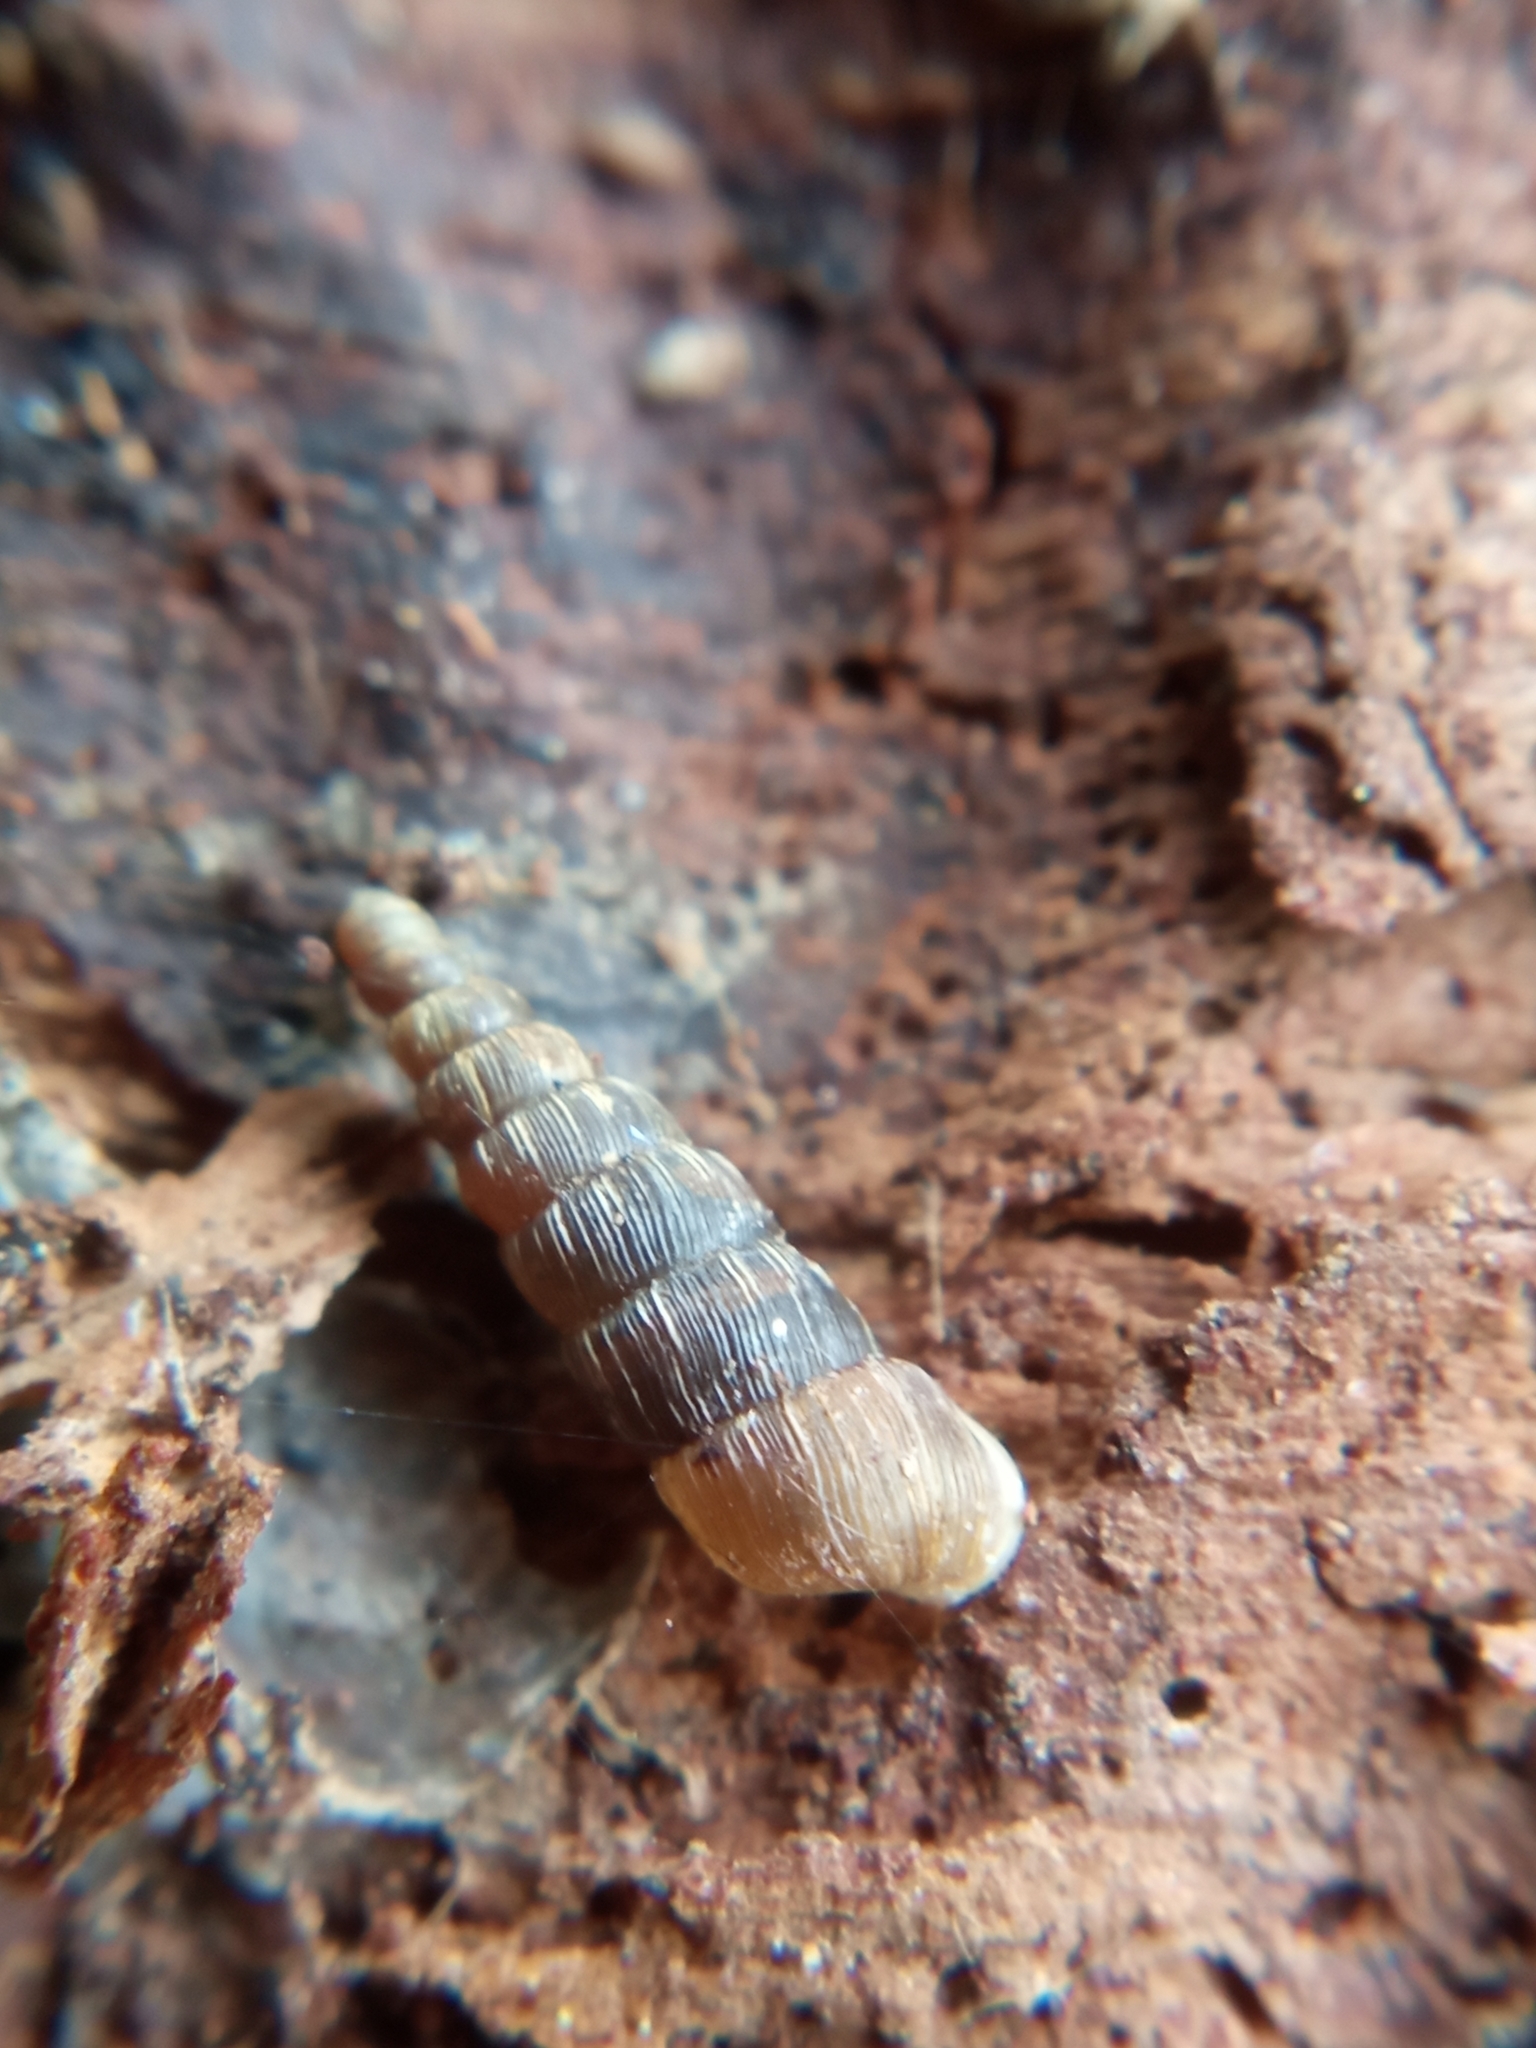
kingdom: Animalia
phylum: Mollusca
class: Gastropoda
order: Stylommatophora
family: Clausiliidae
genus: Balea
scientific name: Balea perversa
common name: Tree snail
